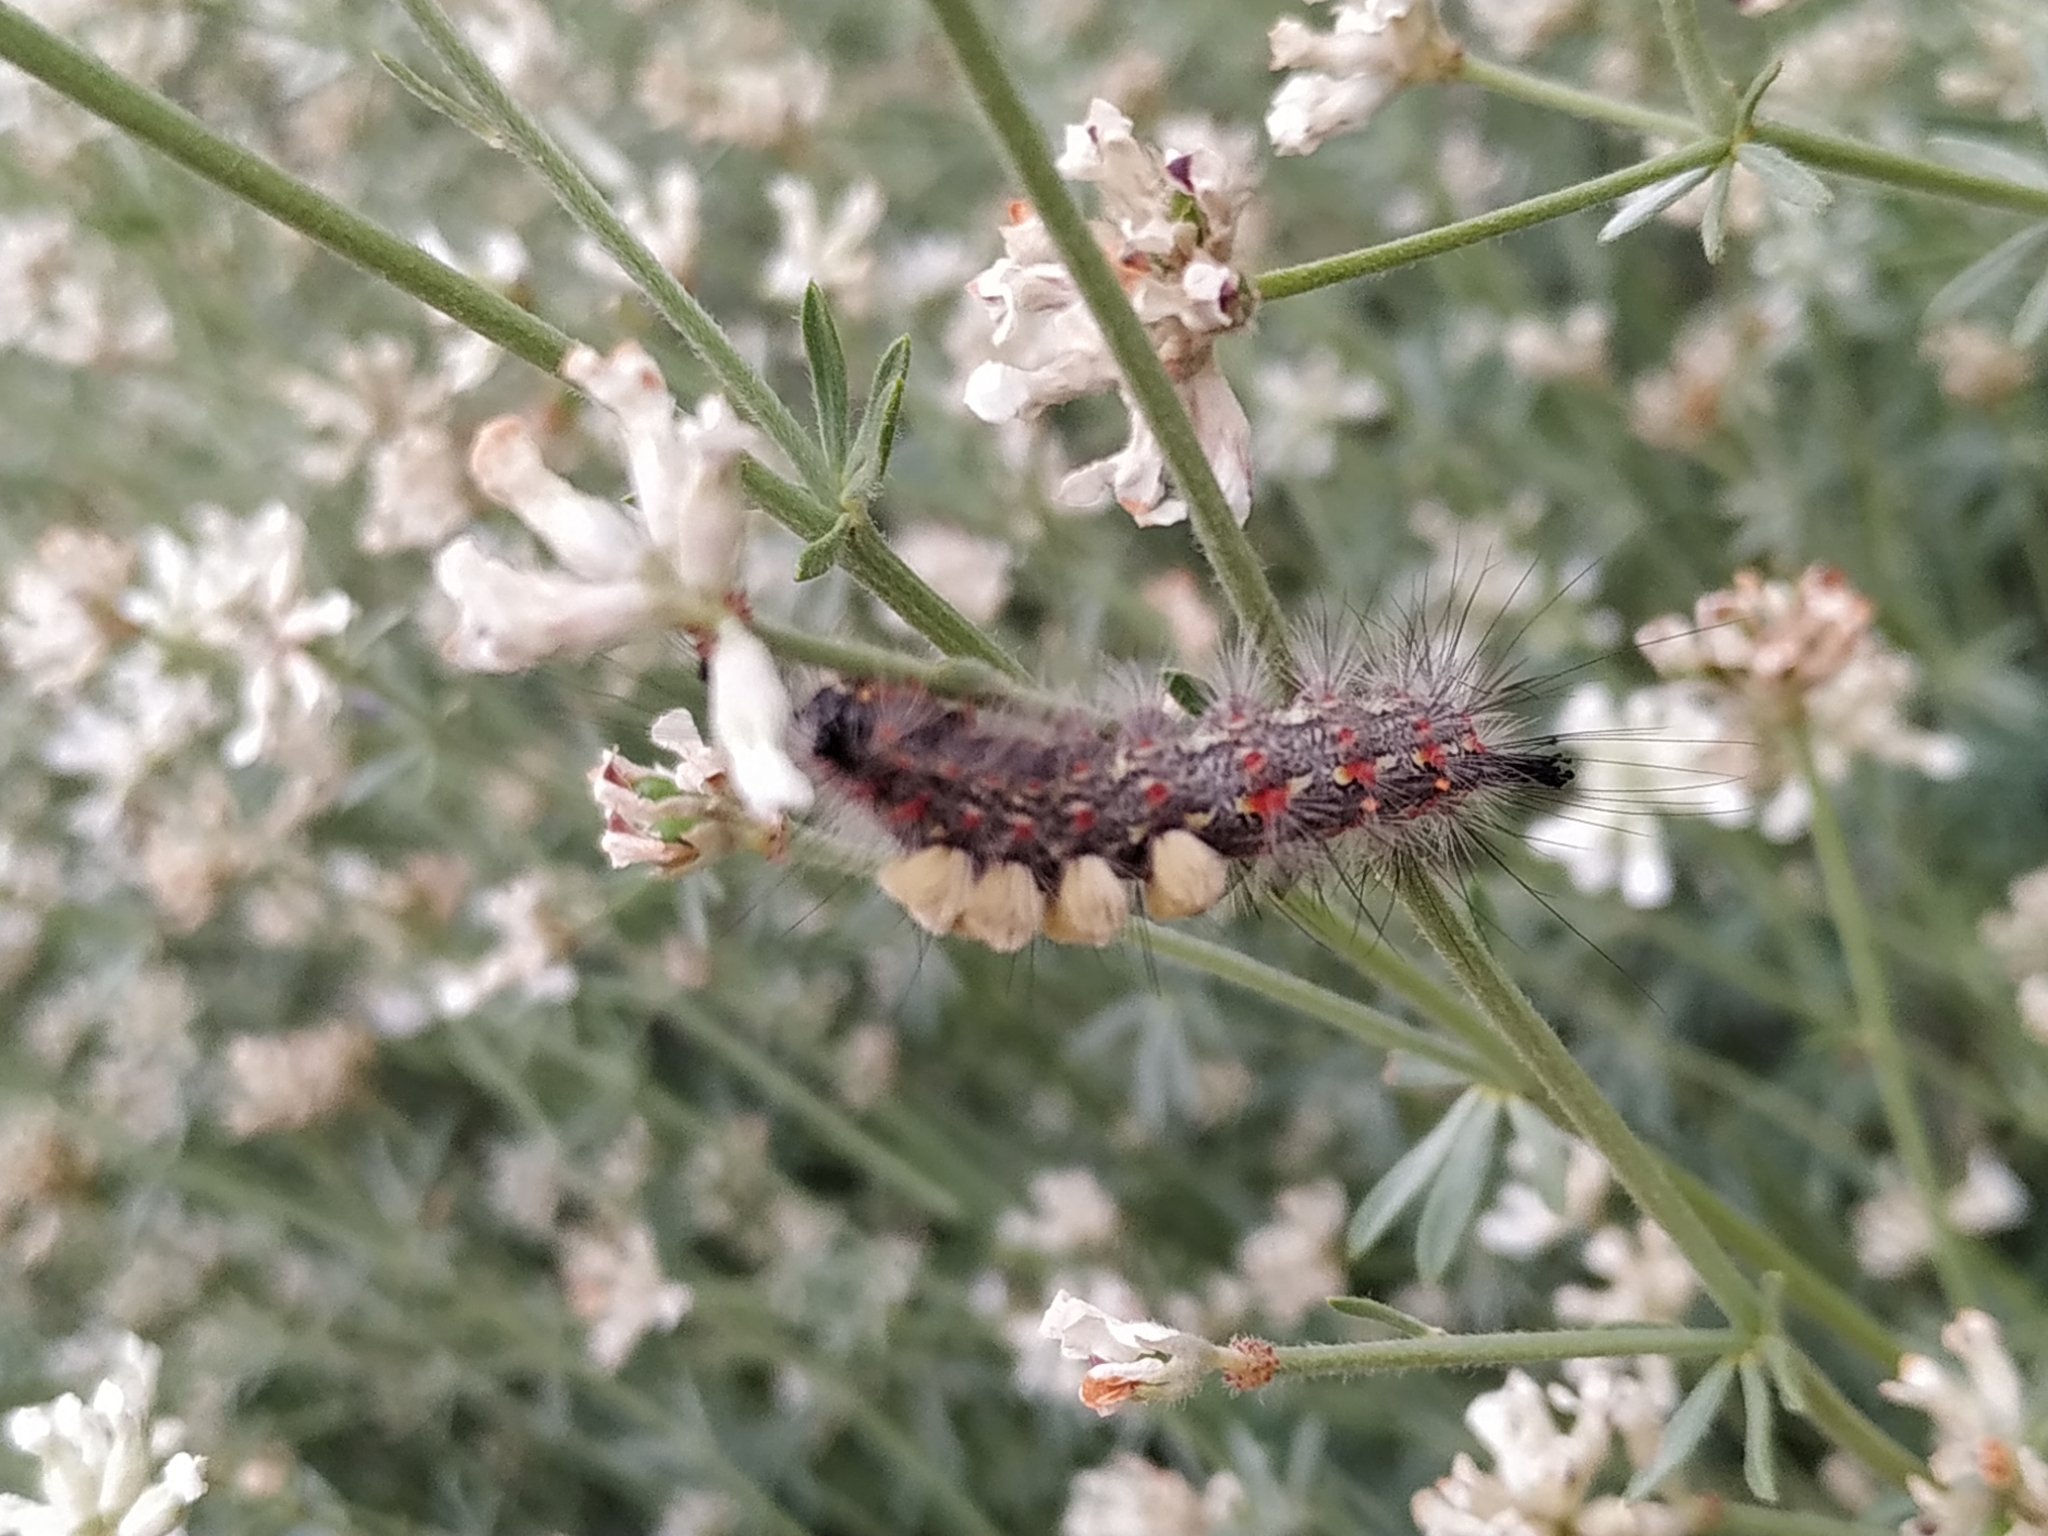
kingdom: Animalia
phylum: Arthropoda
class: Insecta
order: Lepidoptera
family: Erebidae
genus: Orgyia
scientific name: Orgyia trigotephras
